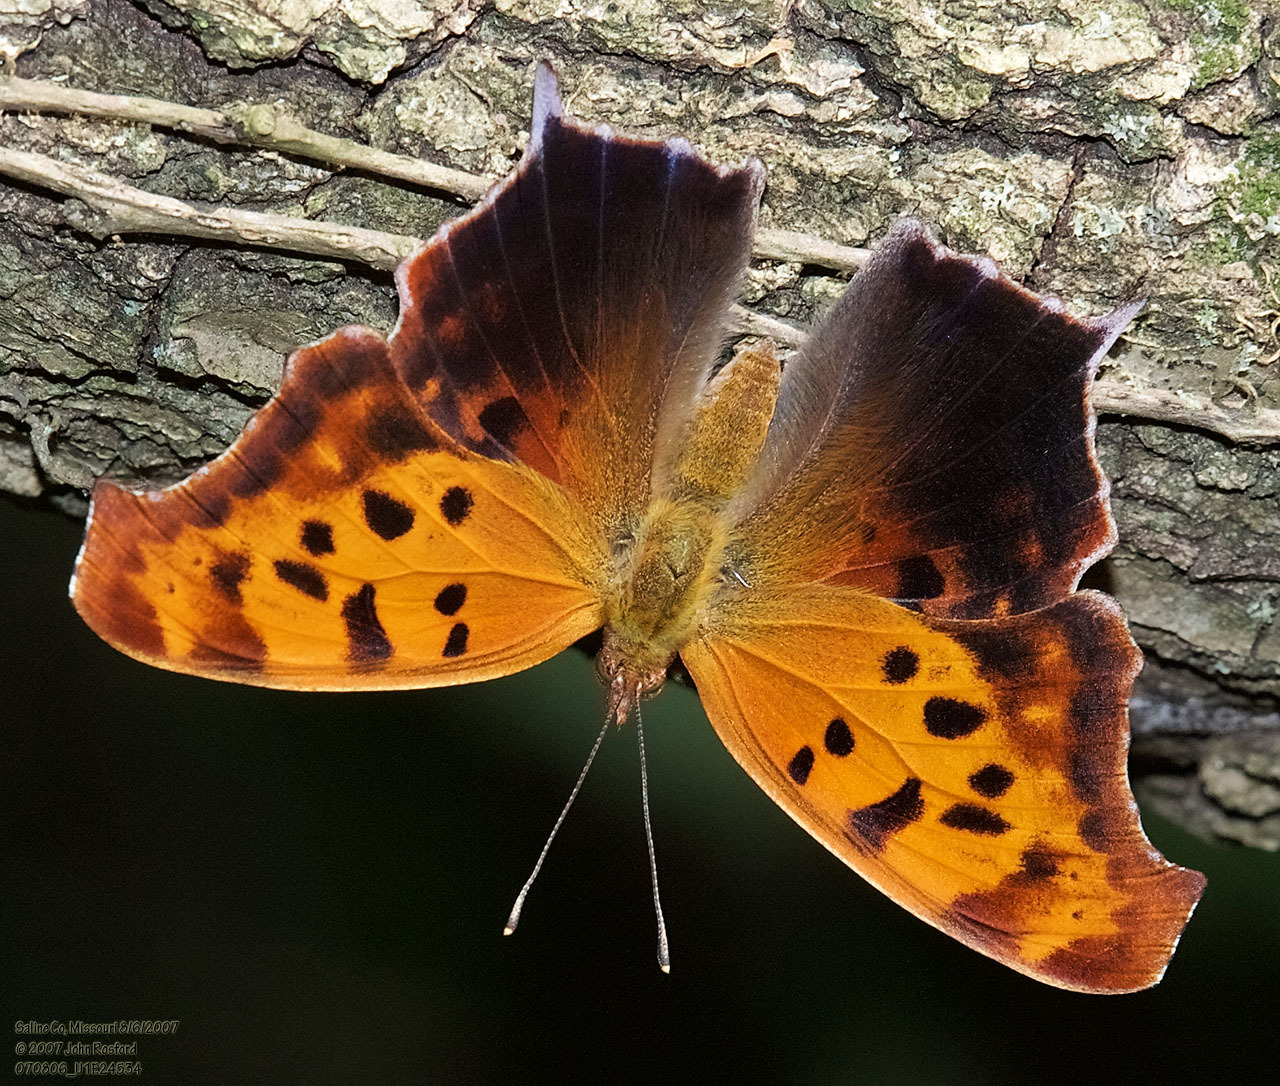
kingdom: Animalia
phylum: Arthropoda
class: Insecta
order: Lepidoptera
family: Nymphalidae
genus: Polygonia
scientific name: Polygonia interrogationis
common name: Question mark
